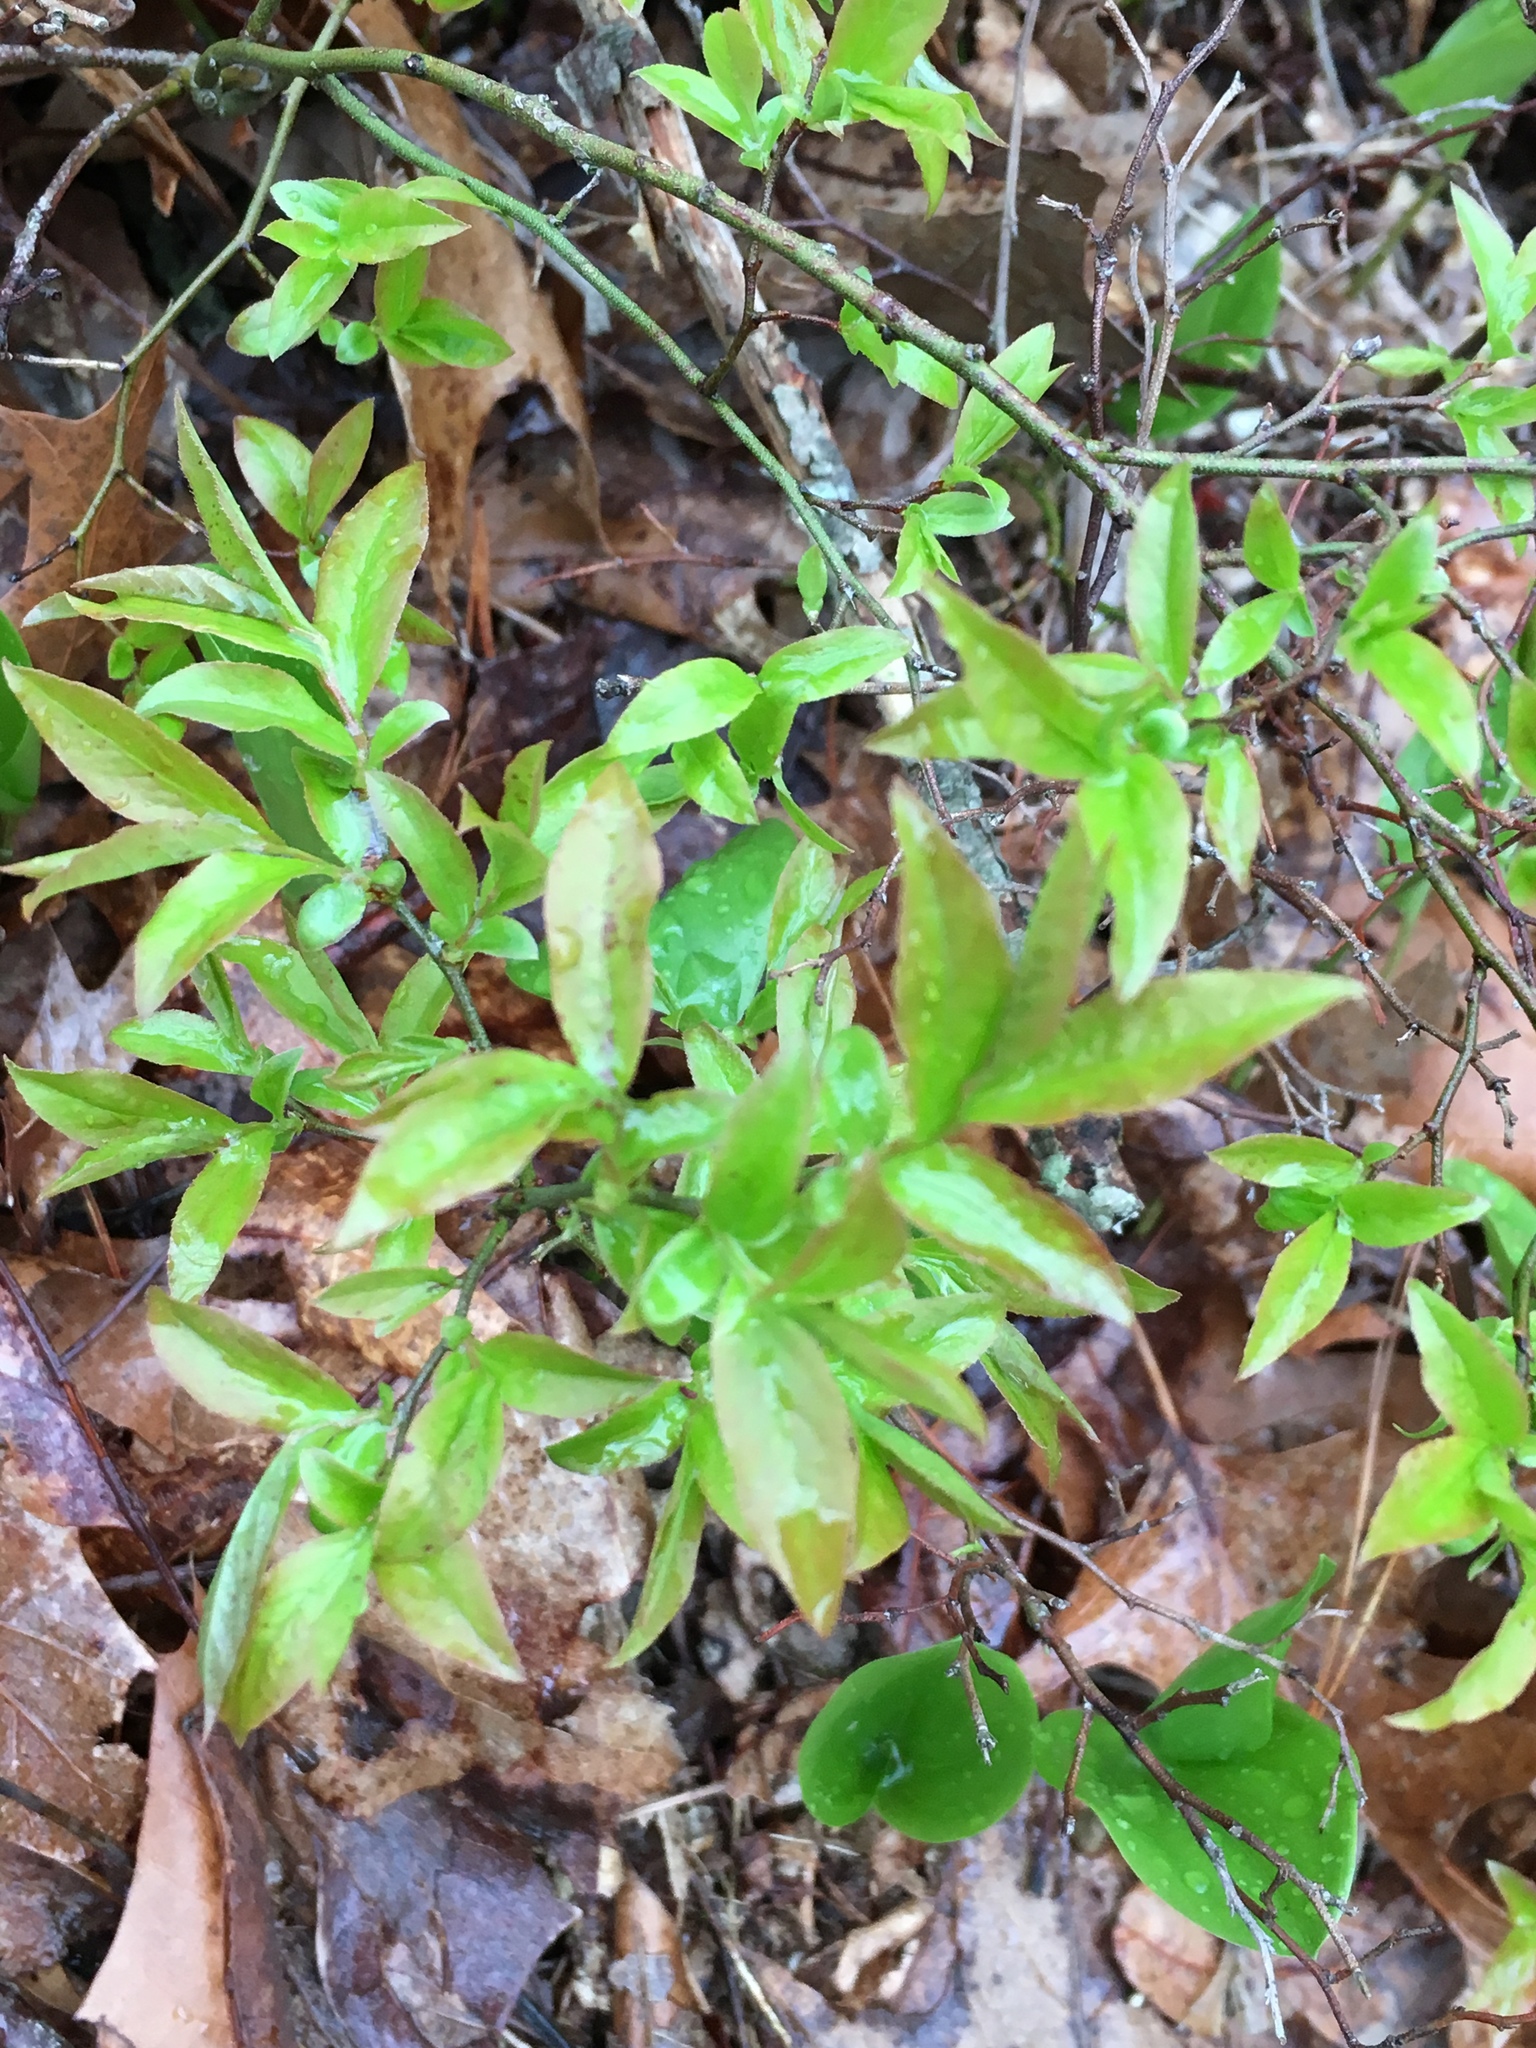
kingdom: Plantae
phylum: Tracheophyta
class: Magnoliopsida
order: Ericales
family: Ericaceae
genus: Vaccinium
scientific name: Vaccinium angustifolium
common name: Early lowbush blueberry
